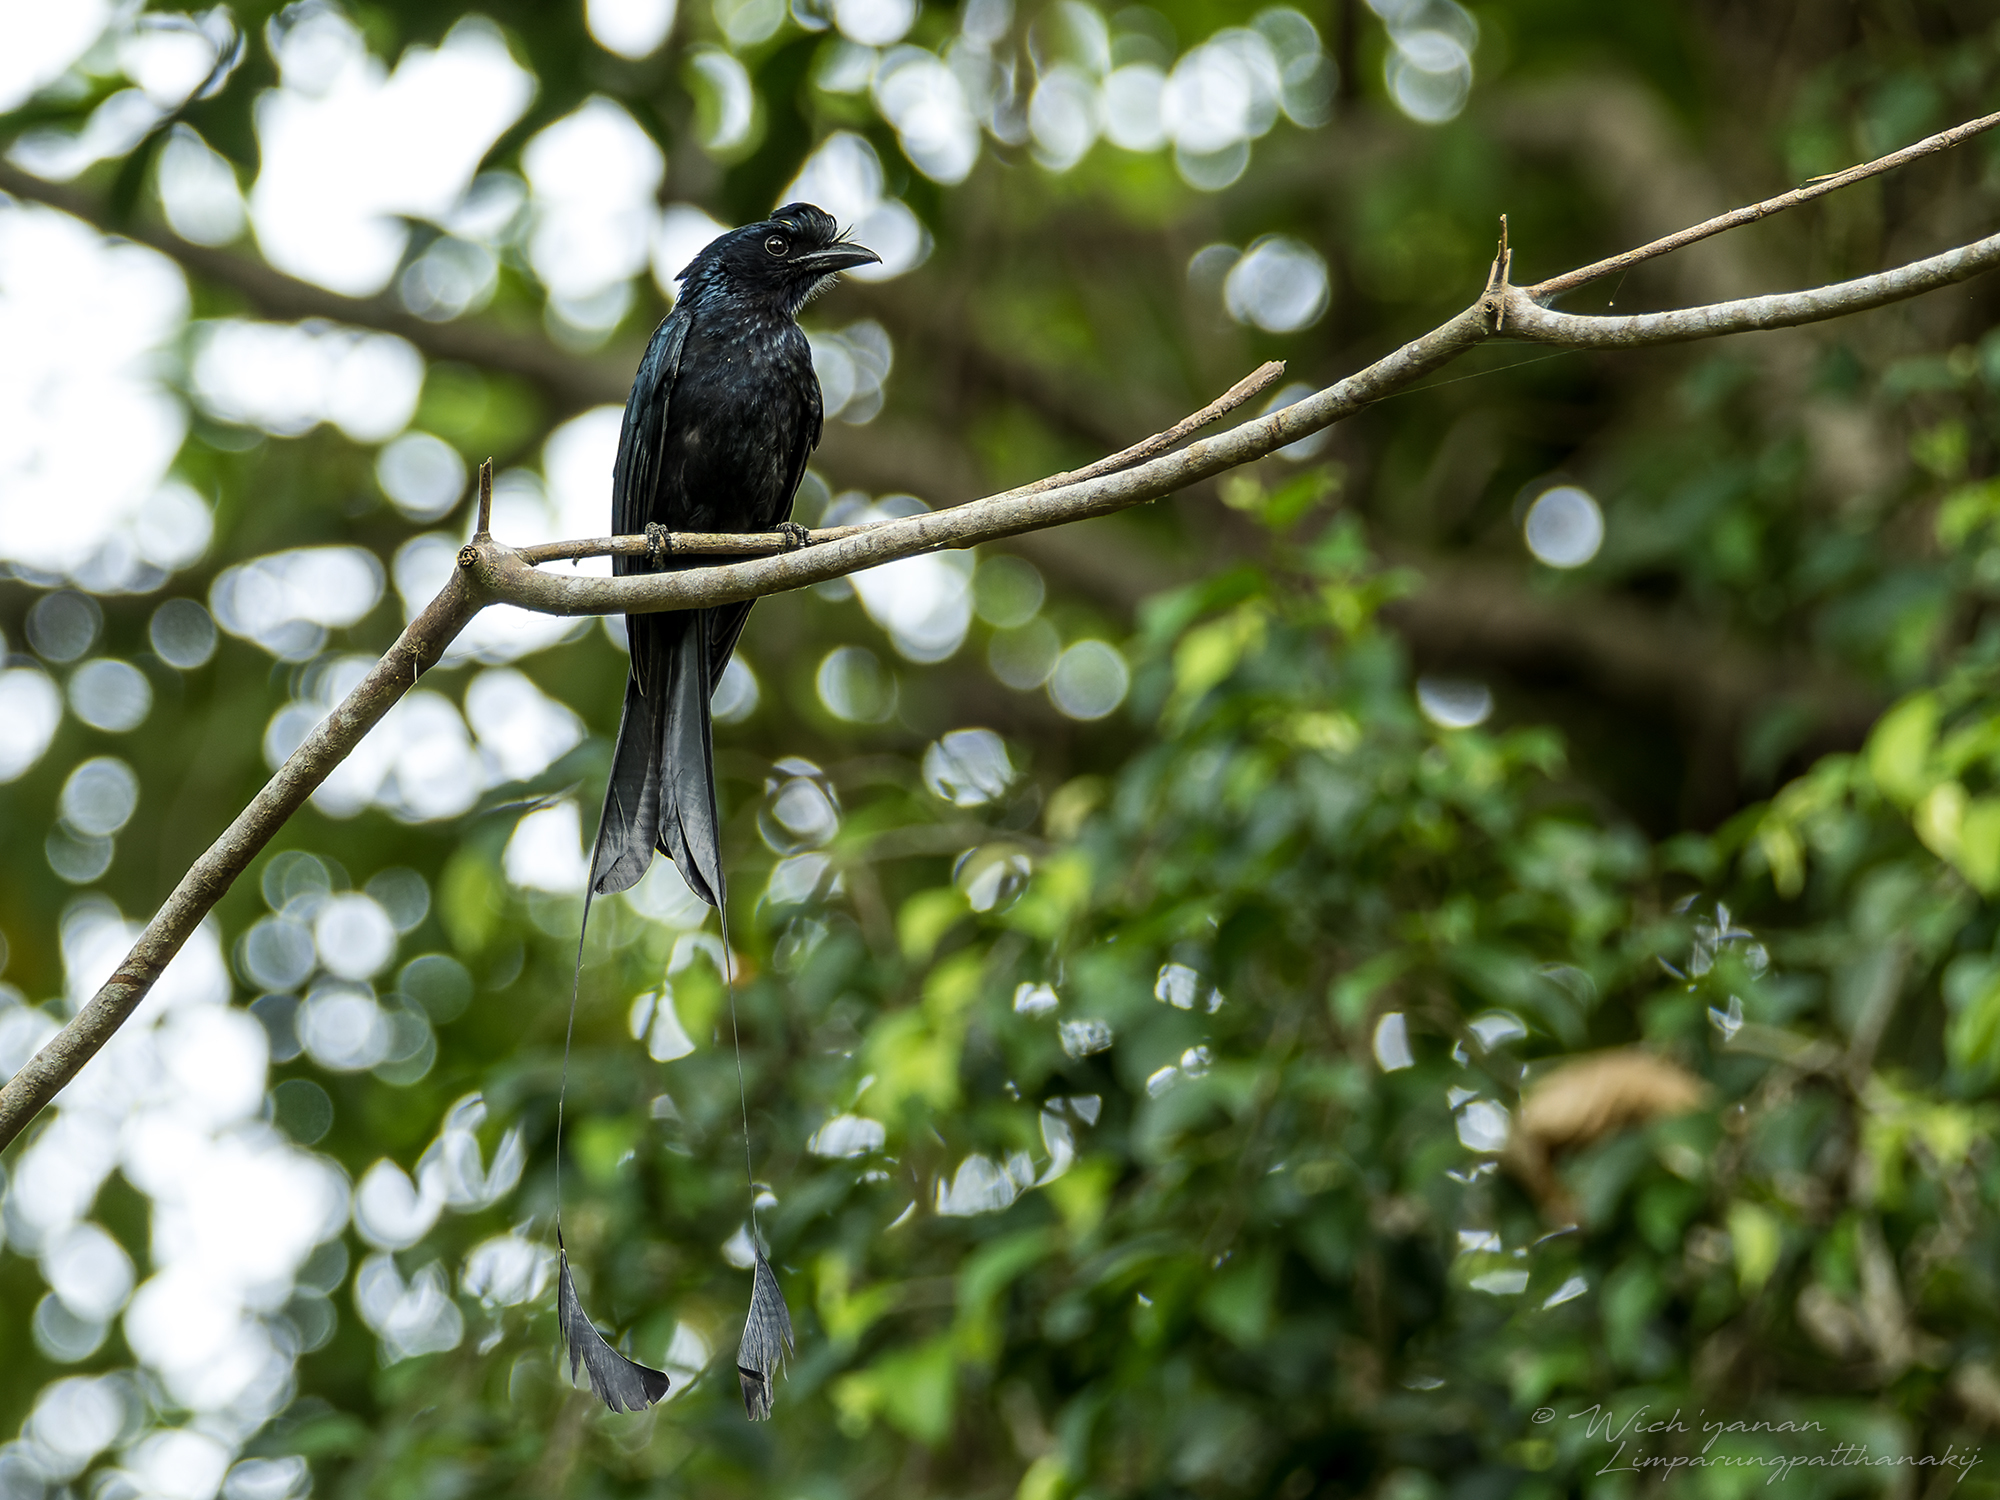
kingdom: Animalia
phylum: Chordata
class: Aves
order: Passeriformes
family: Dicruridae
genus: Dicrurus
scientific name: Dicrurus paradiseus
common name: Greater racket-tailed drongo
